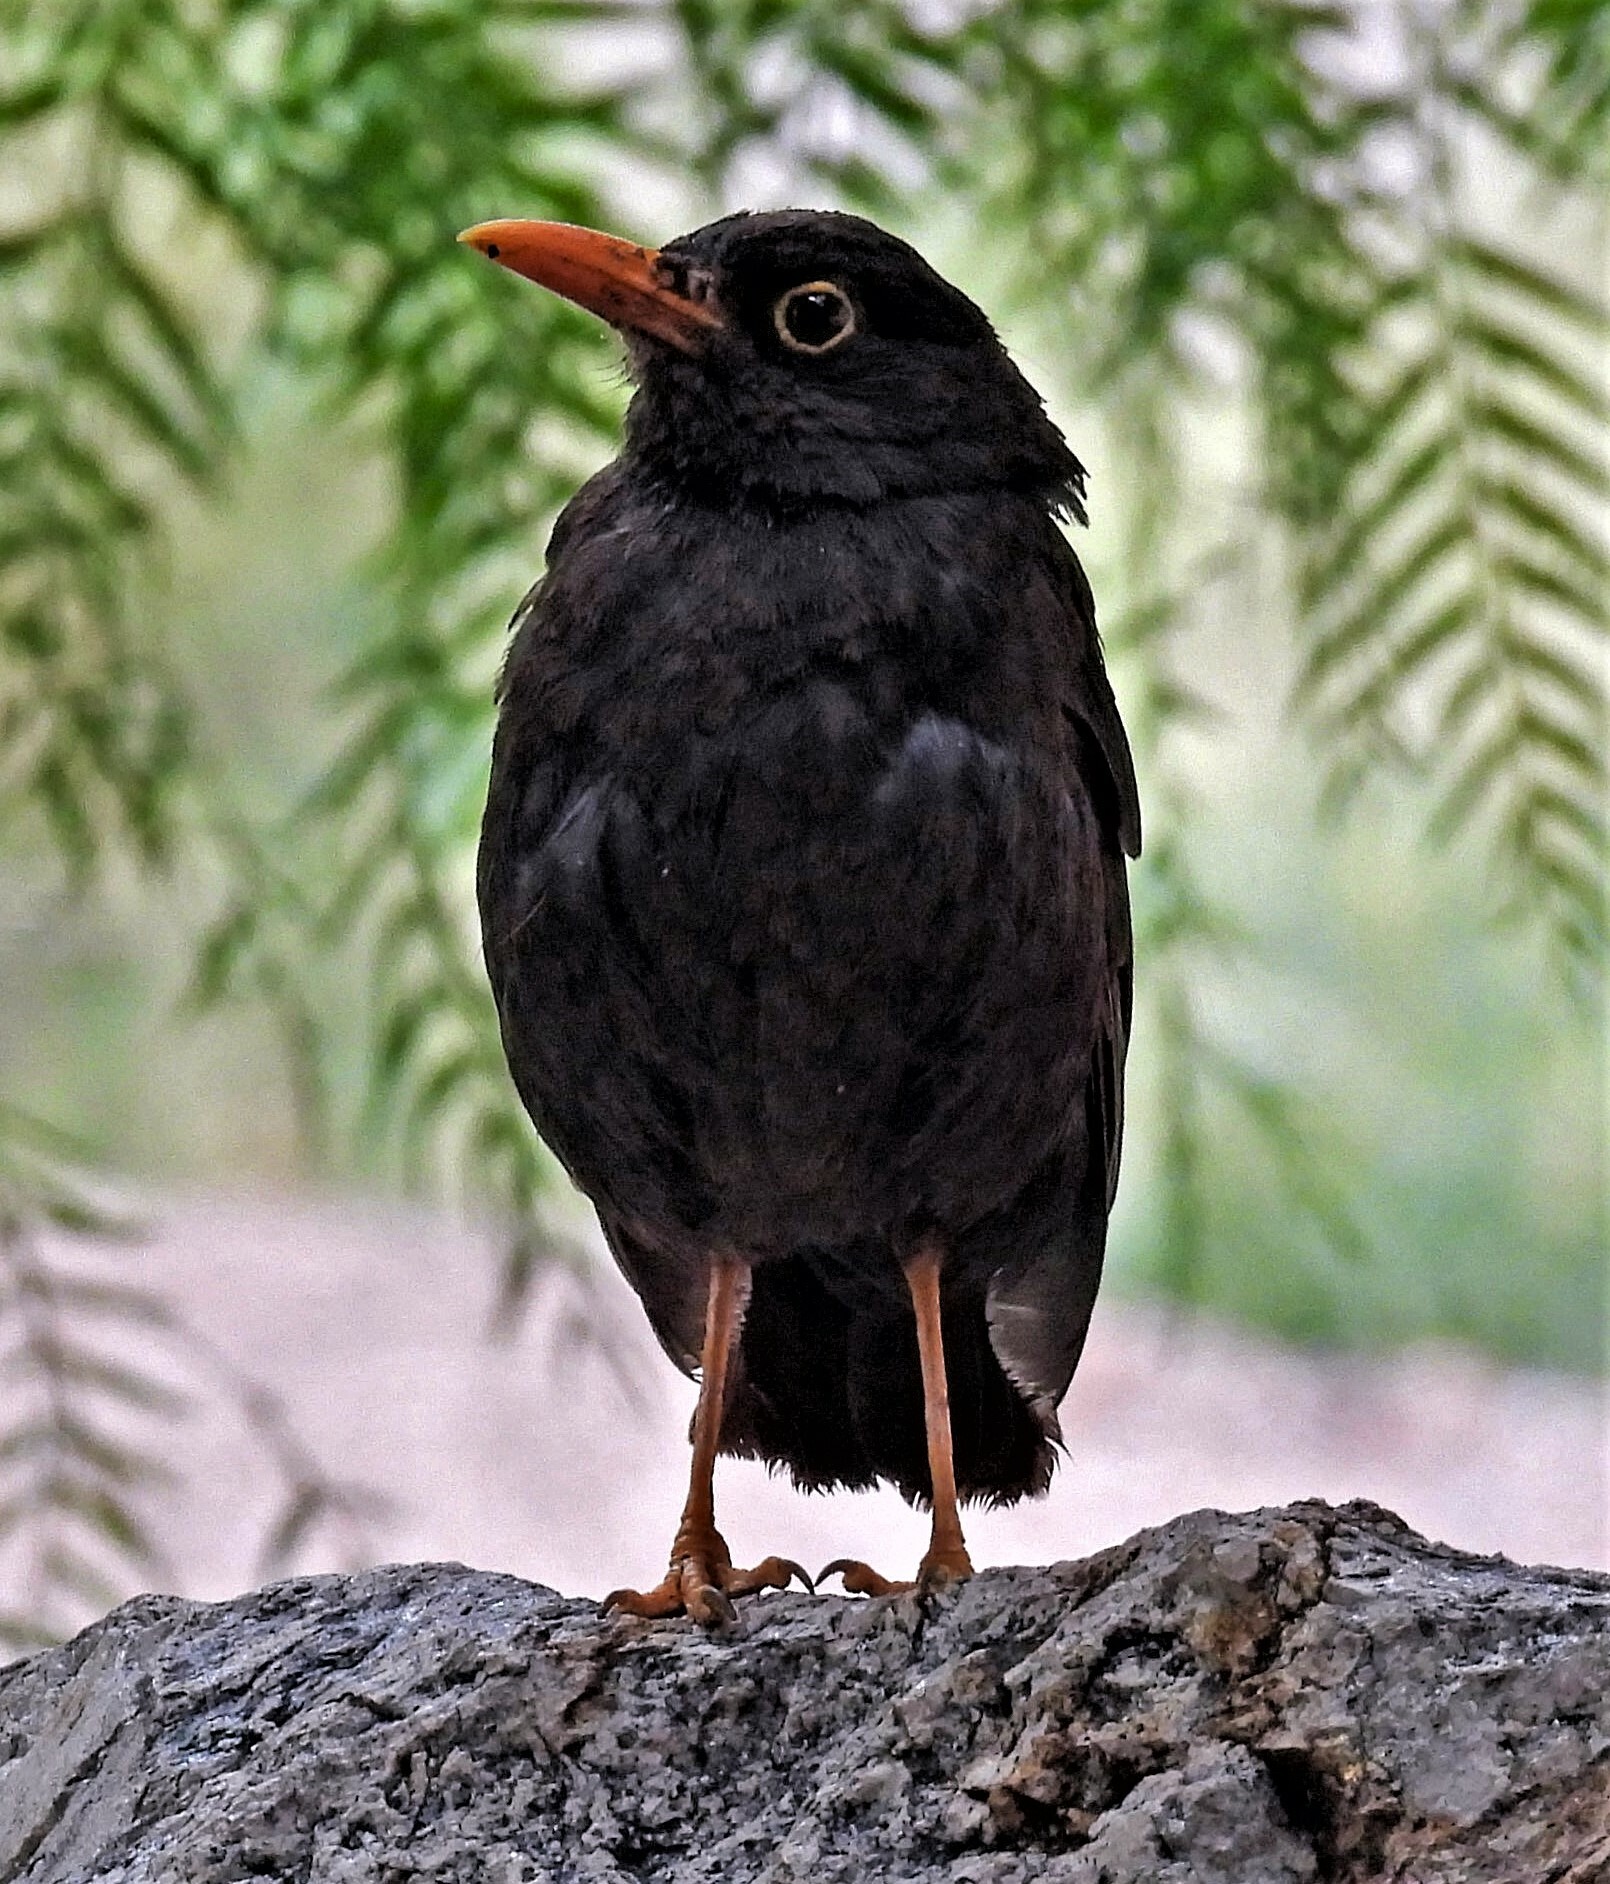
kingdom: Animalia
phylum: Chordata
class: Aves
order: Passeriformes
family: Turdidae
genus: Turdus
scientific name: Turdus chiguanco
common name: Chiguanco thrush
